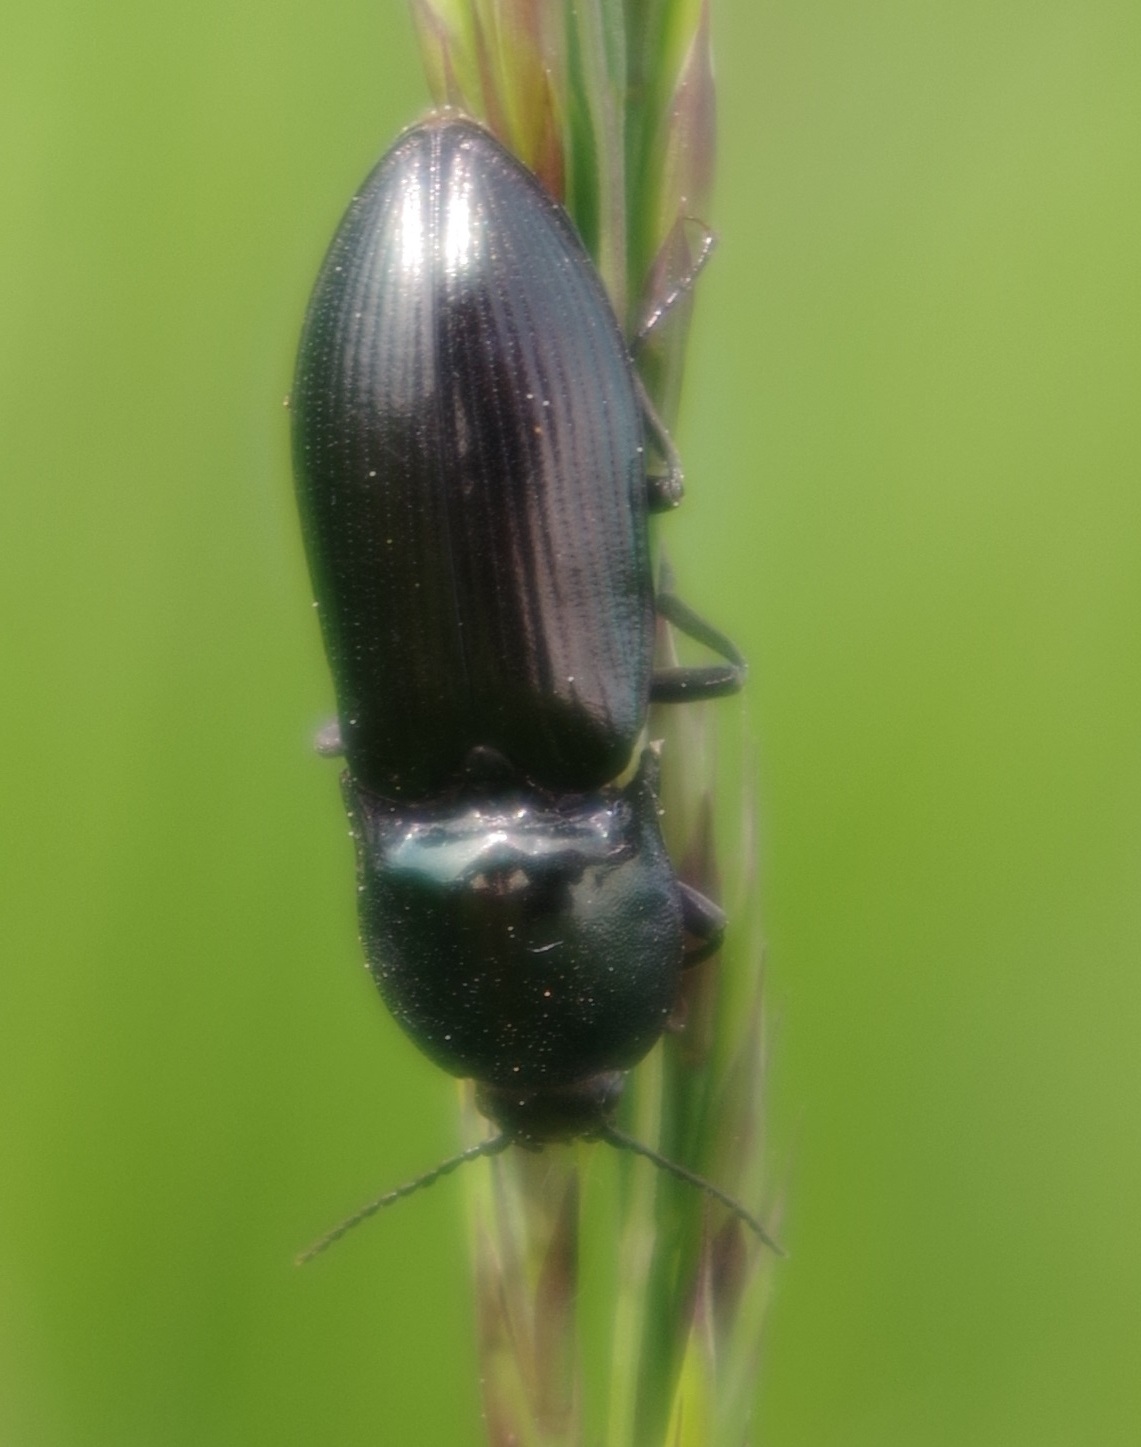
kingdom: Animalia
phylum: Arthropoda
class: Insecta
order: Coleoptera
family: Elateridae
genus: Selatosomus
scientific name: Selatosomus aeneus
